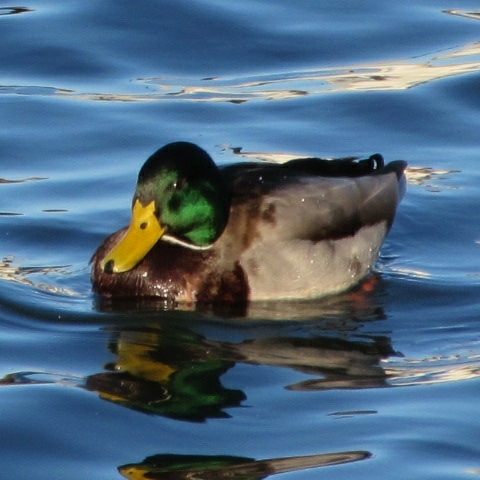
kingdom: Animalia
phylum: Chordata
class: Aves
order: Anseriformes
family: Anatidae
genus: Anas
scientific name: Anas platyrhynchos
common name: Mallard
